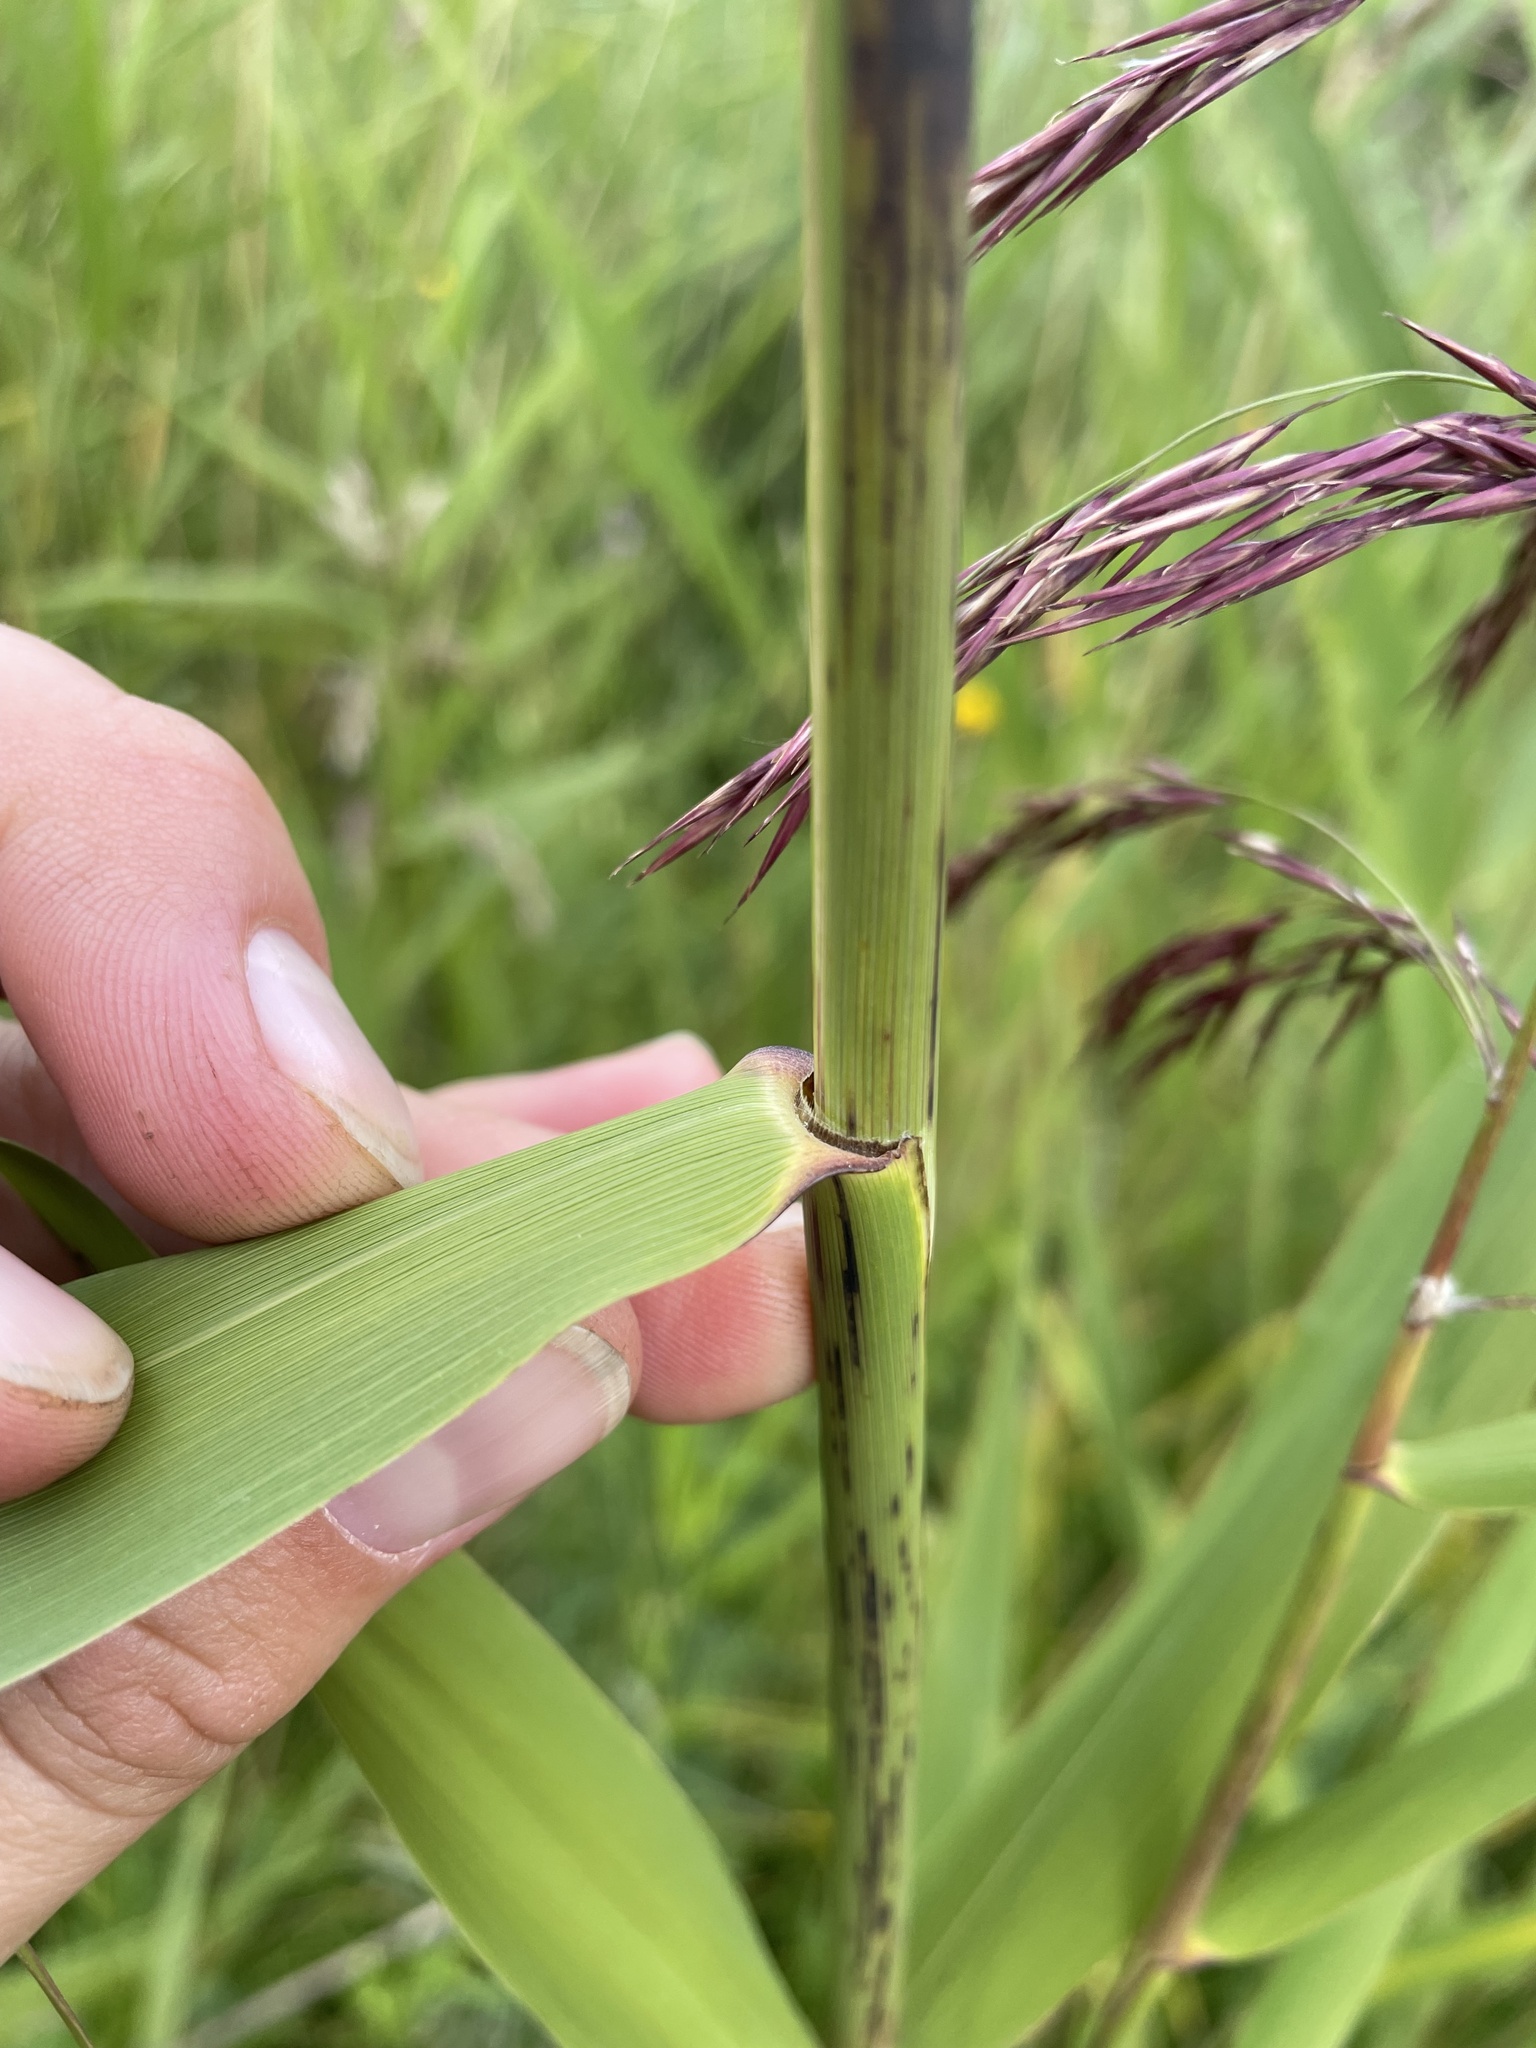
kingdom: Plantae
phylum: Tracheophyta
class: Liliopsida
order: Poales
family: Poaceae
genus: Phragmites
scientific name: Phragmites australis
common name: Common reed
